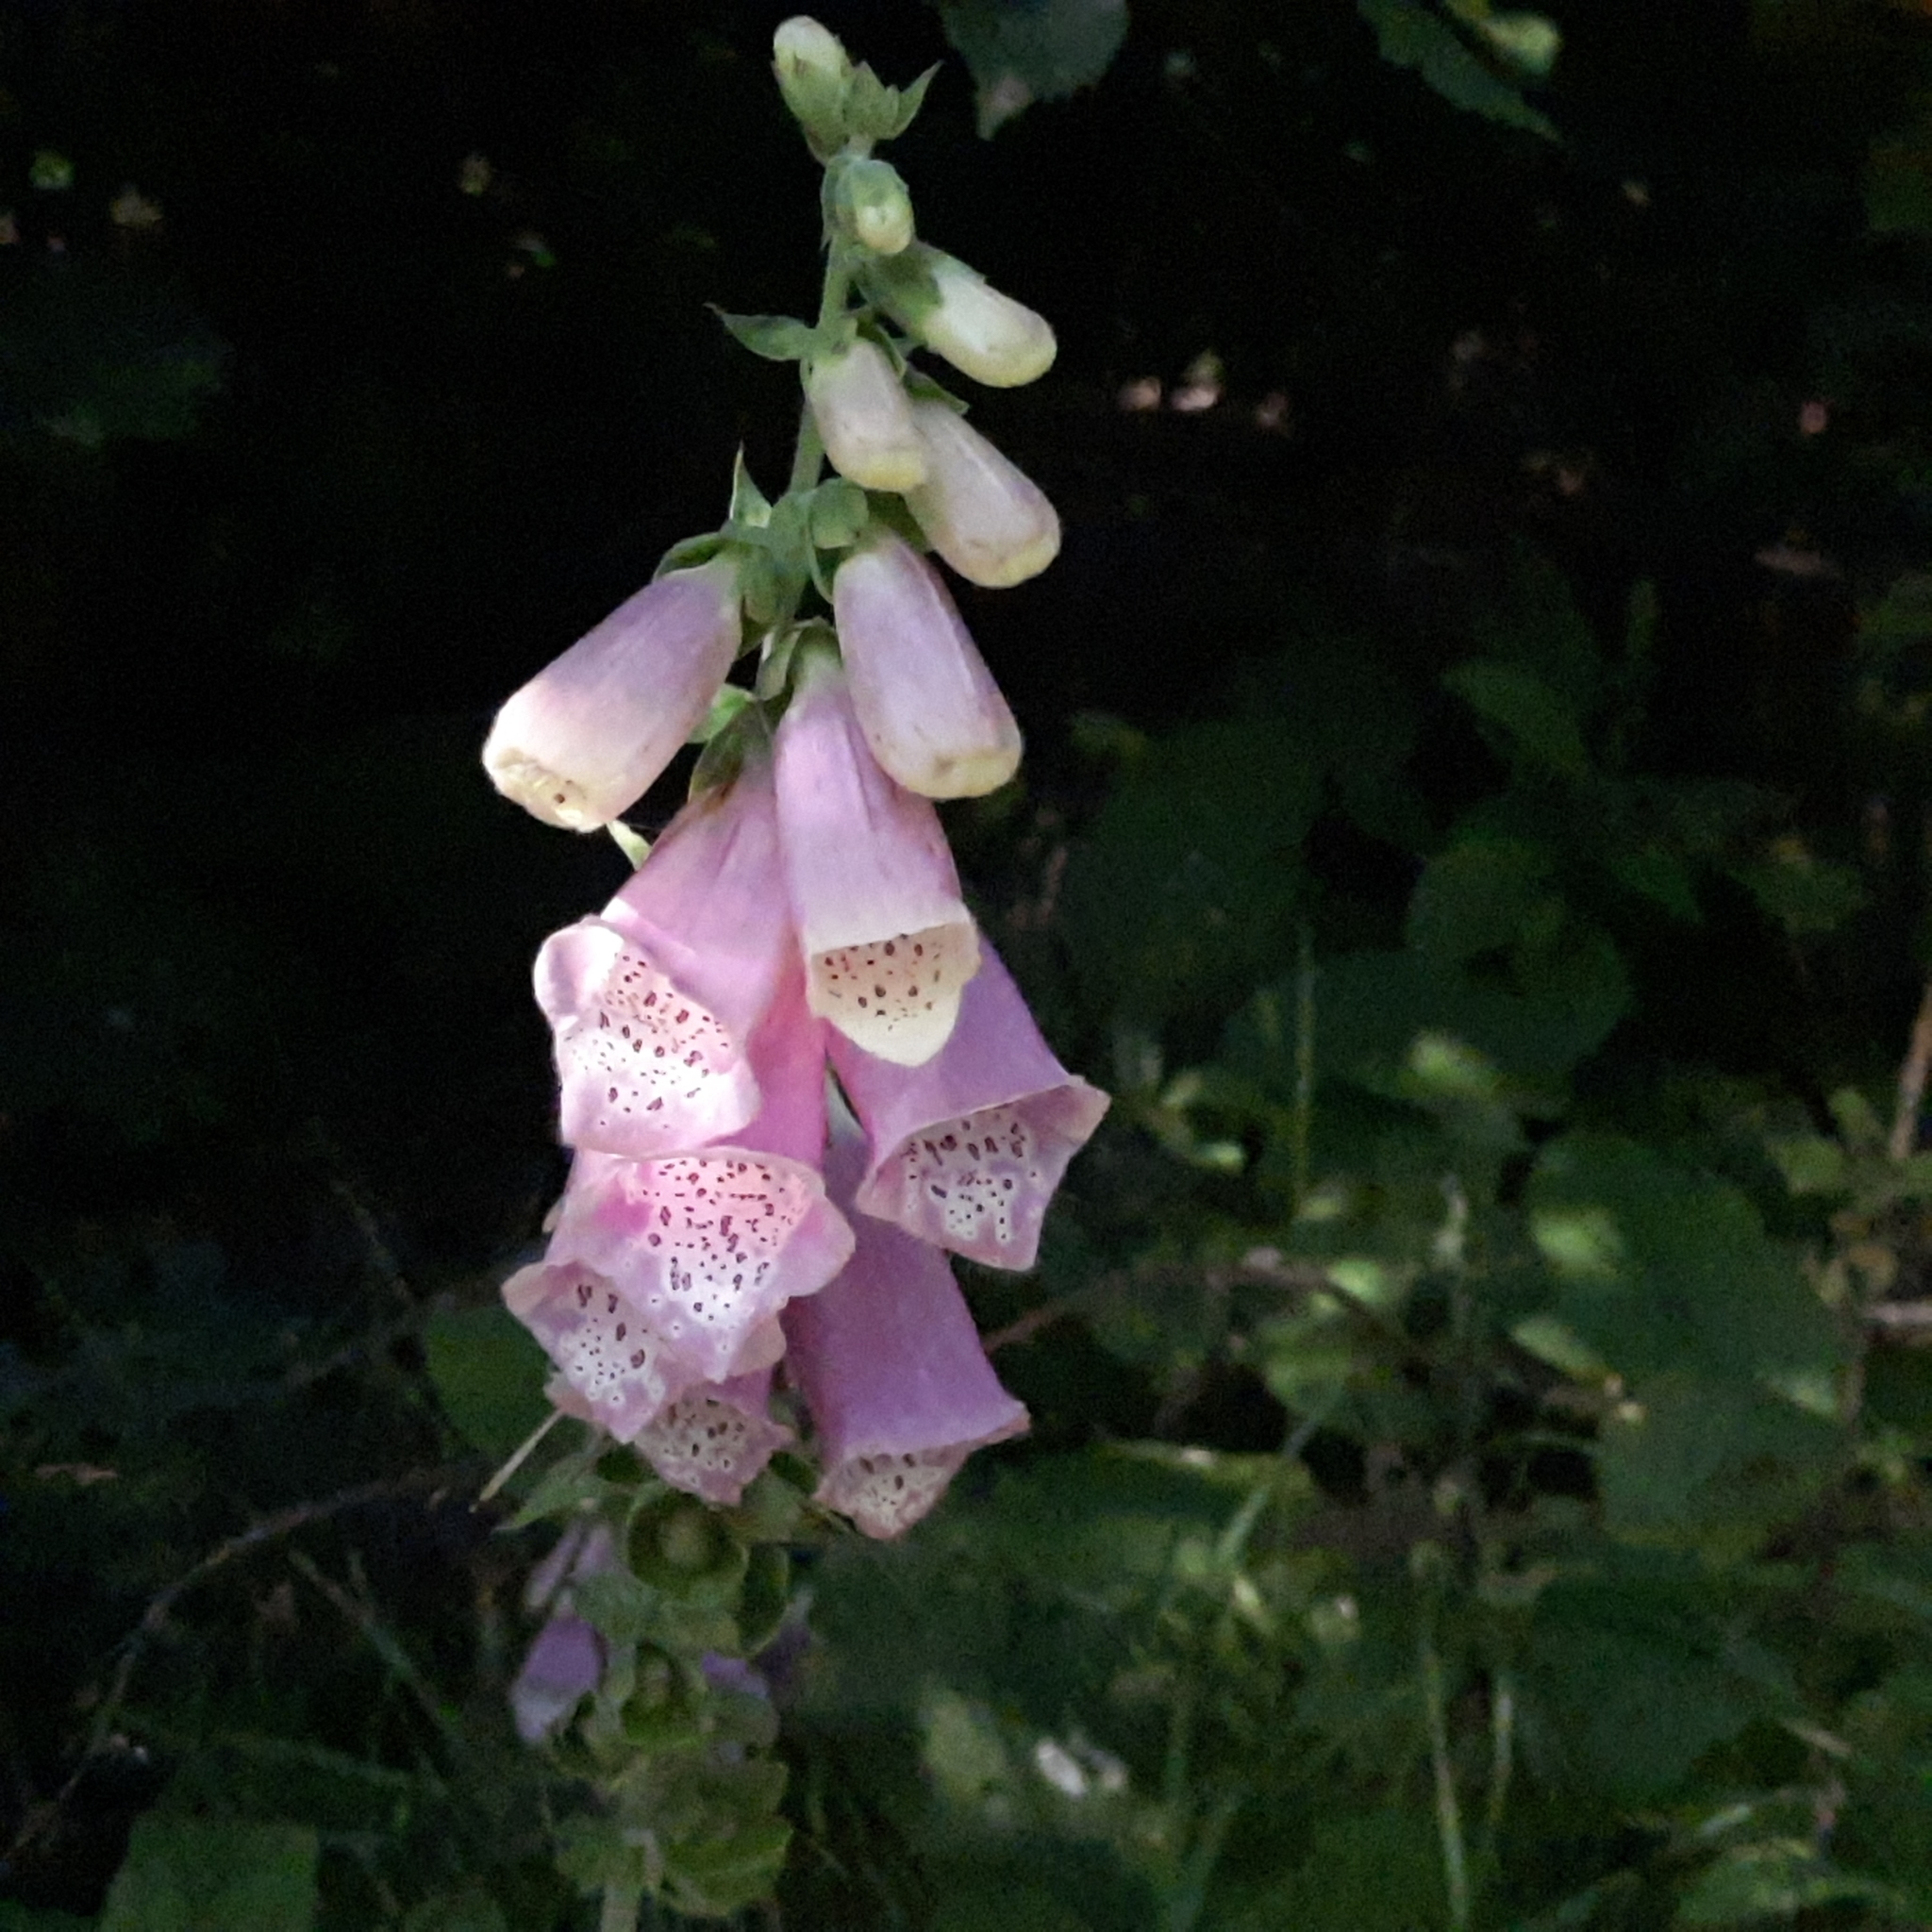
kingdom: Plantae
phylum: Tracheophyta
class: Magnoliopsida
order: Lamiales
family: Plantaginaceae
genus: Digitalis
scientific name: Digitalis purpurea
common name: Foxglove
